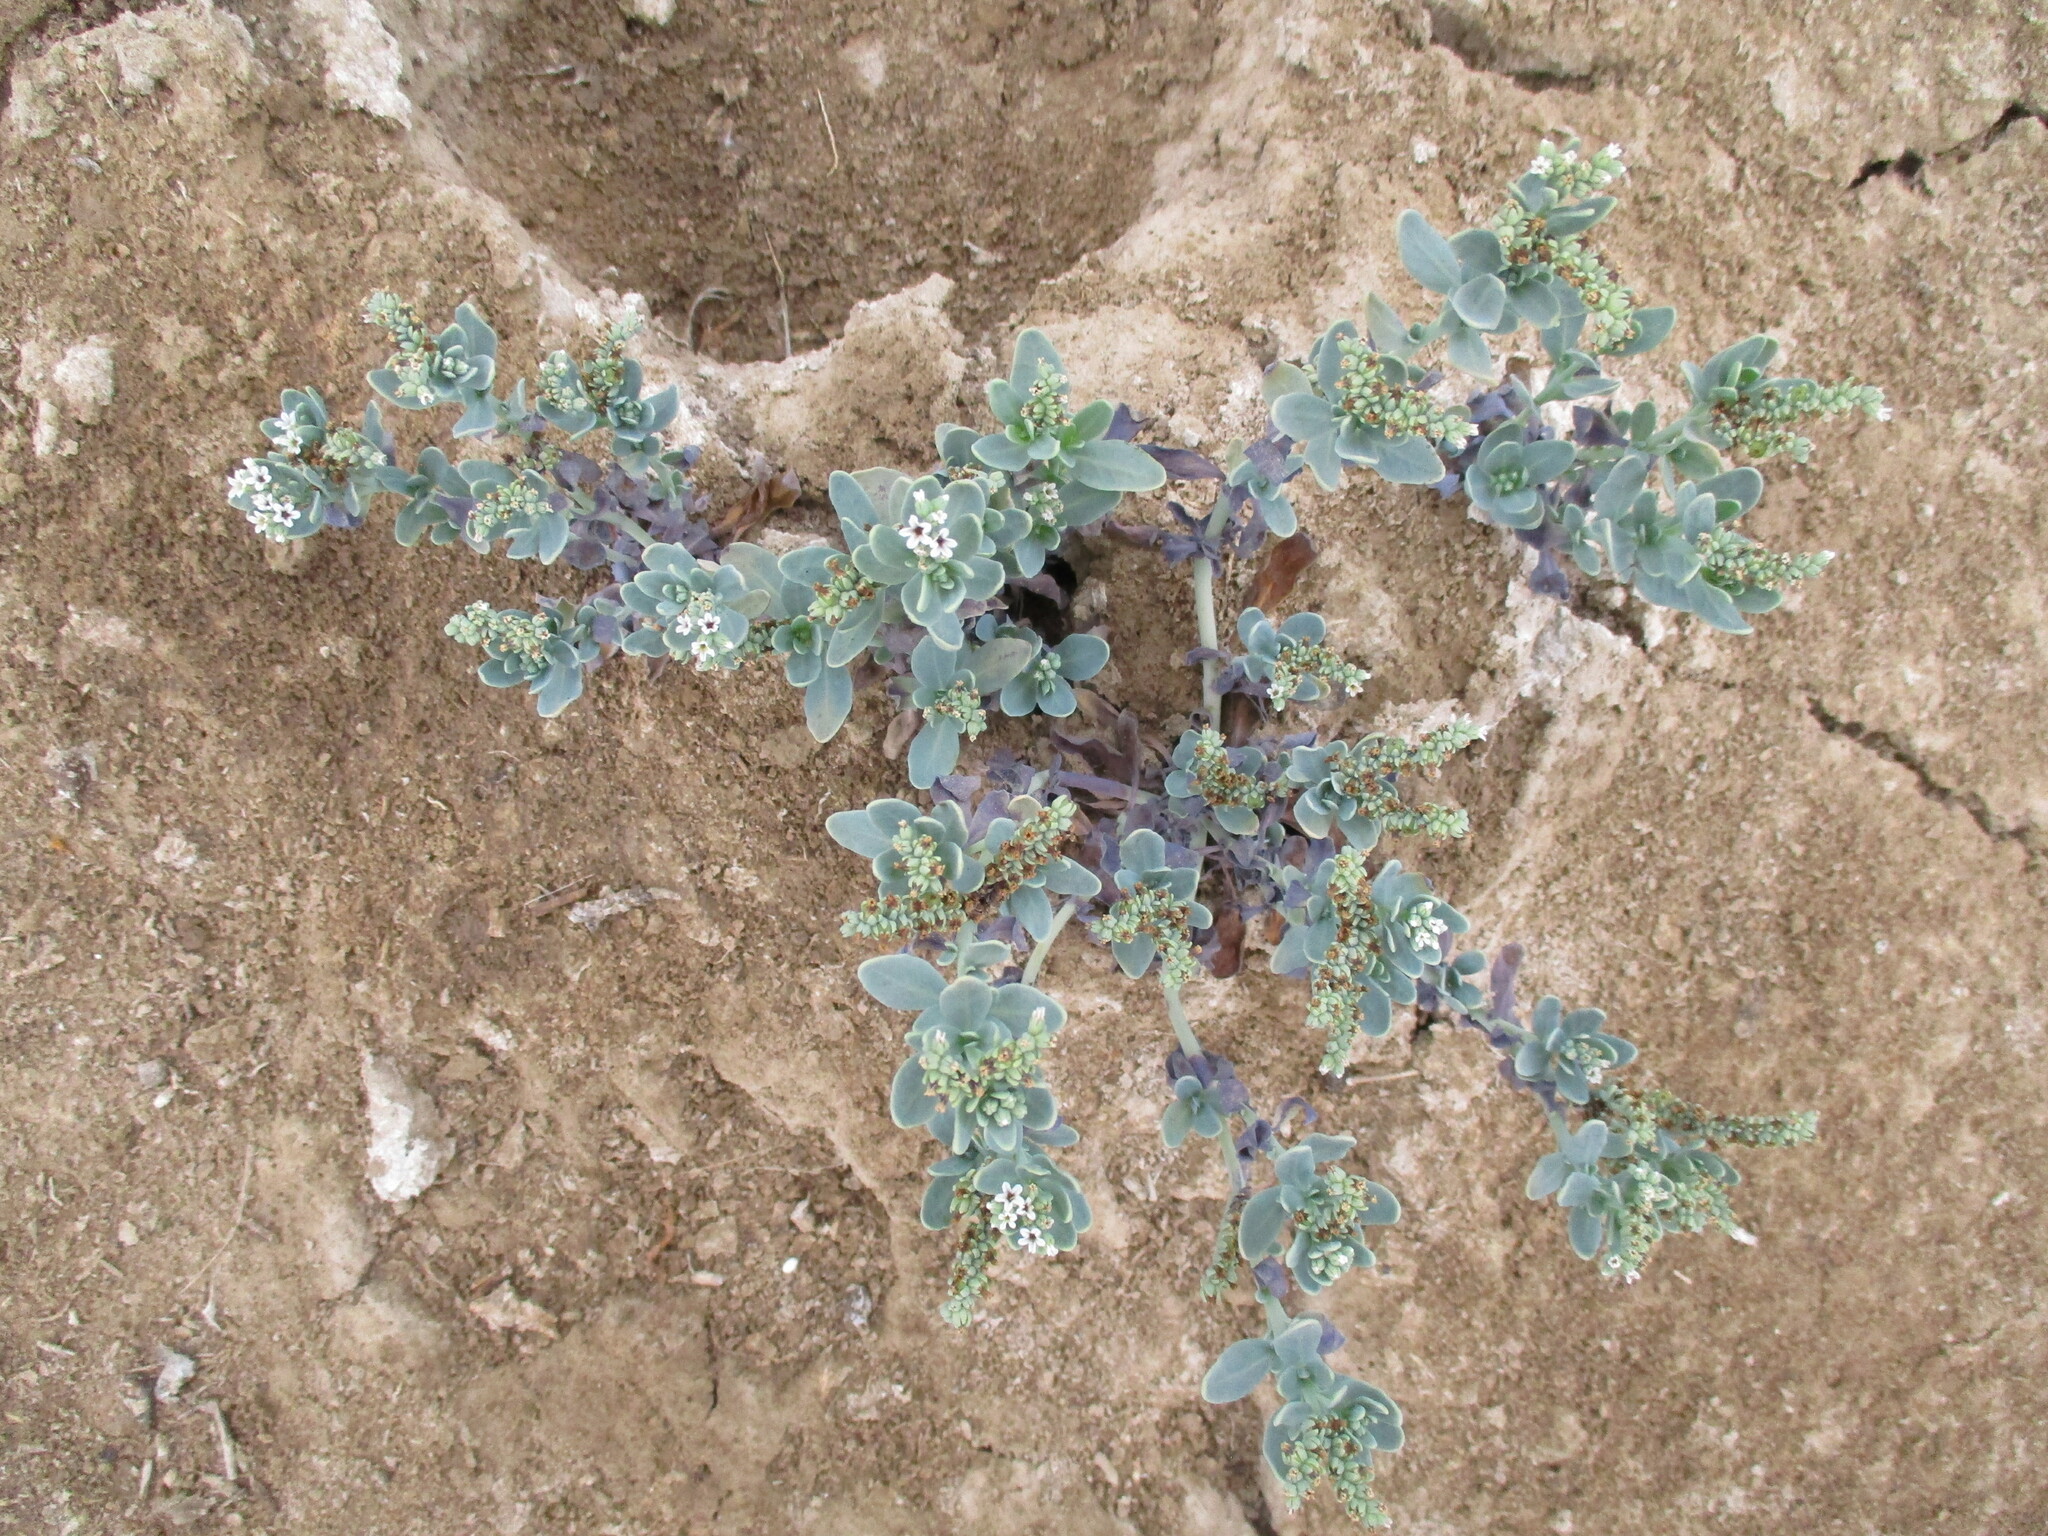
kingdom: Plantae
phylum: Tracheophyta
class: Magnoliopsida
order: Boraginales
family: Heliotropiaceae
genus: Heliotropium
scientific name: Heliotropium curassavicum
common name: Seaside heliotrope
